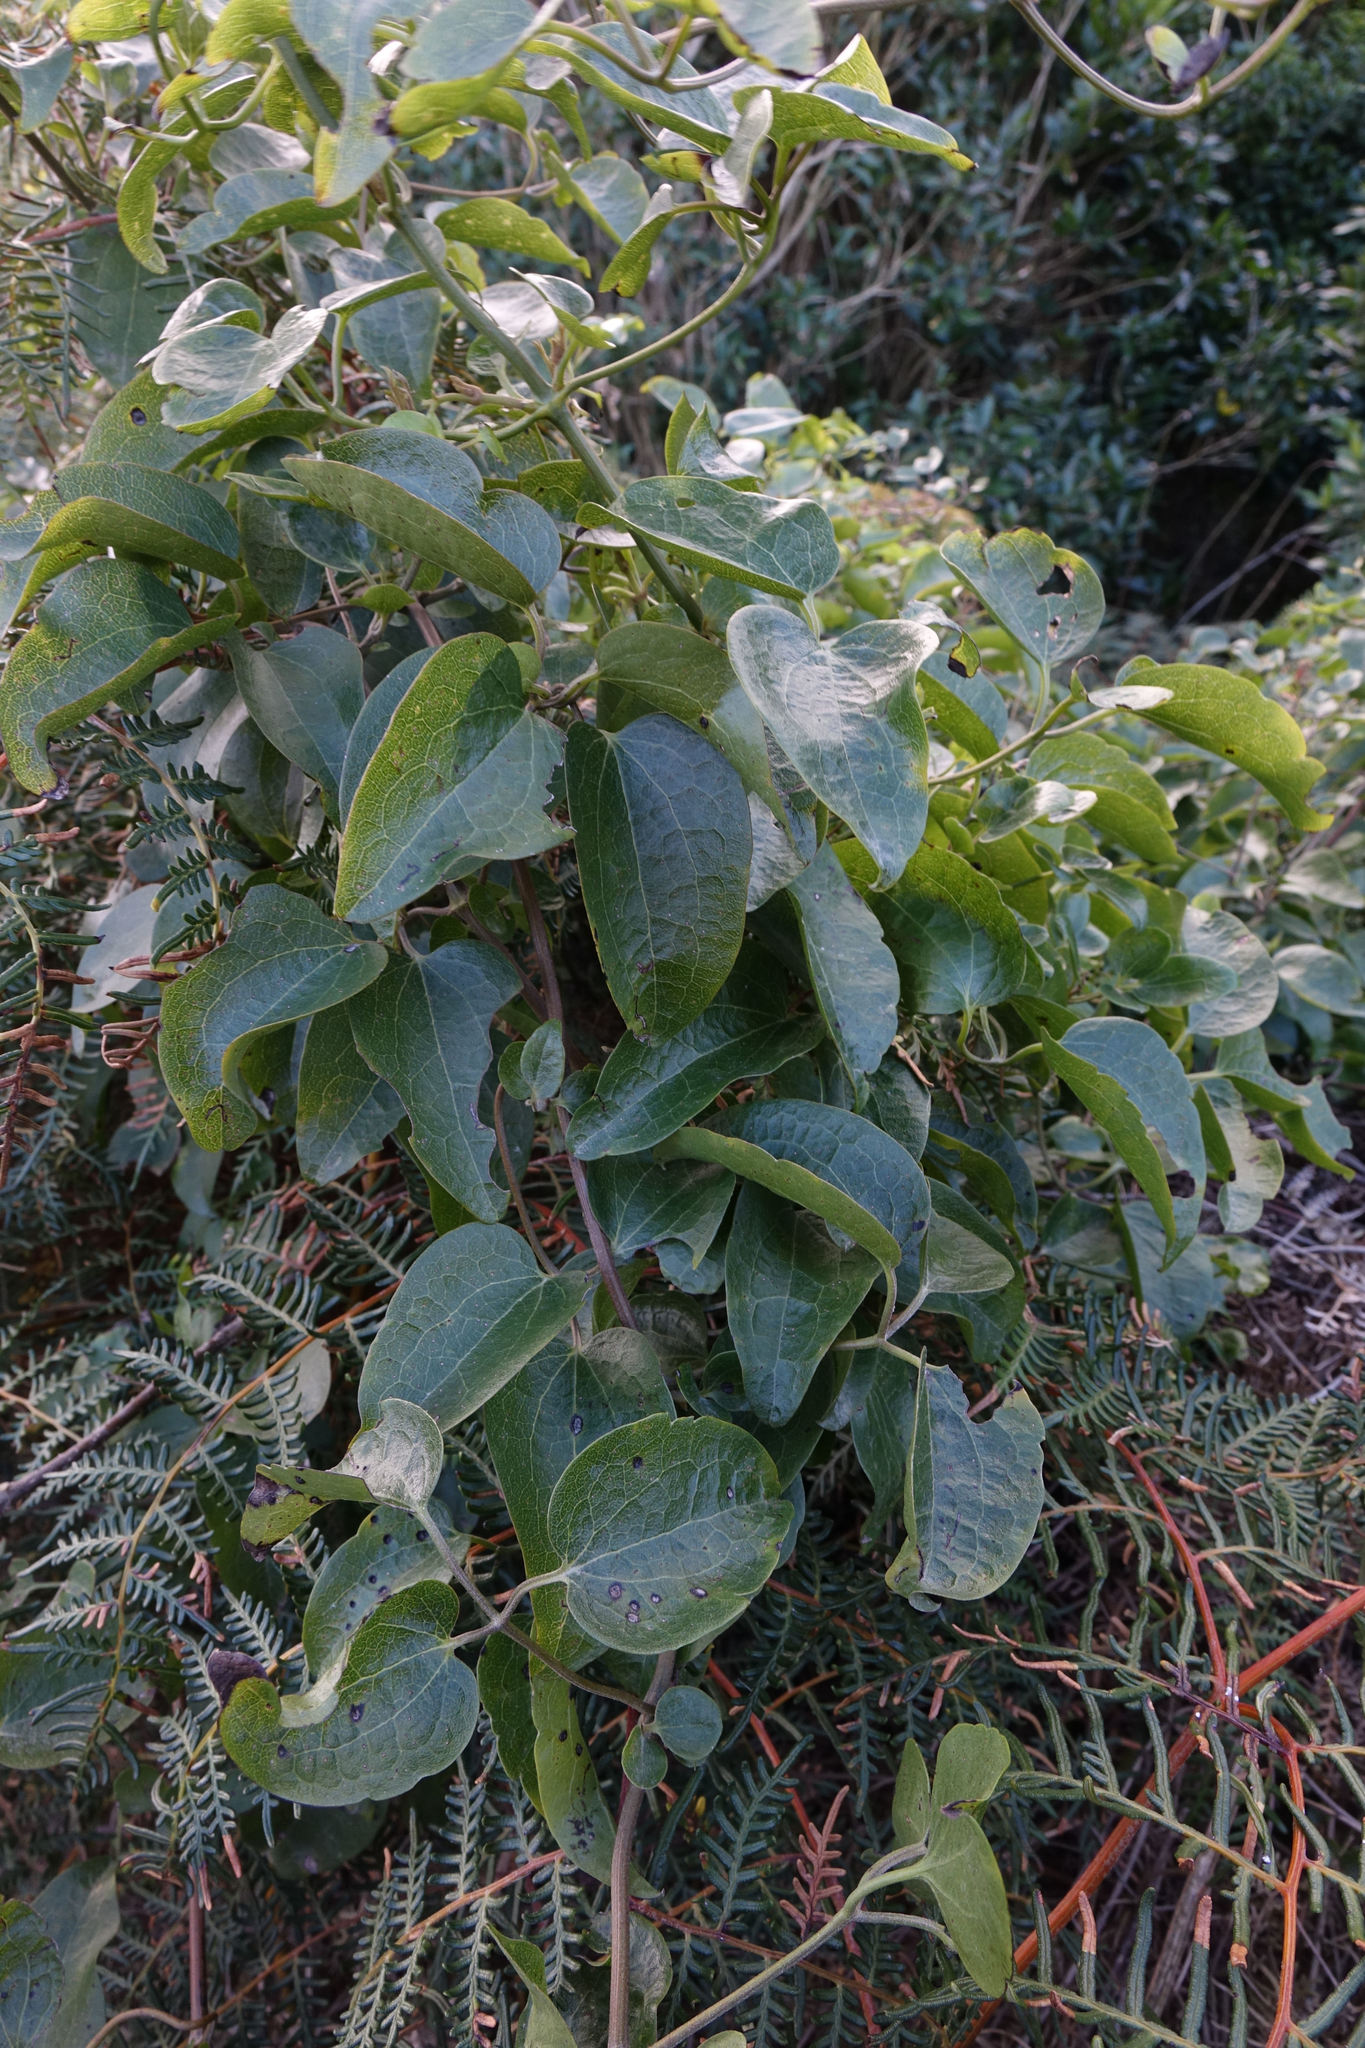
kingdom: Plantae
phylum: Tracheophyta
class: Magnoliopsida
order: Ranunculales
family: Ranunculaceae
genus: Clematis
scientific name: Clematis foetida
